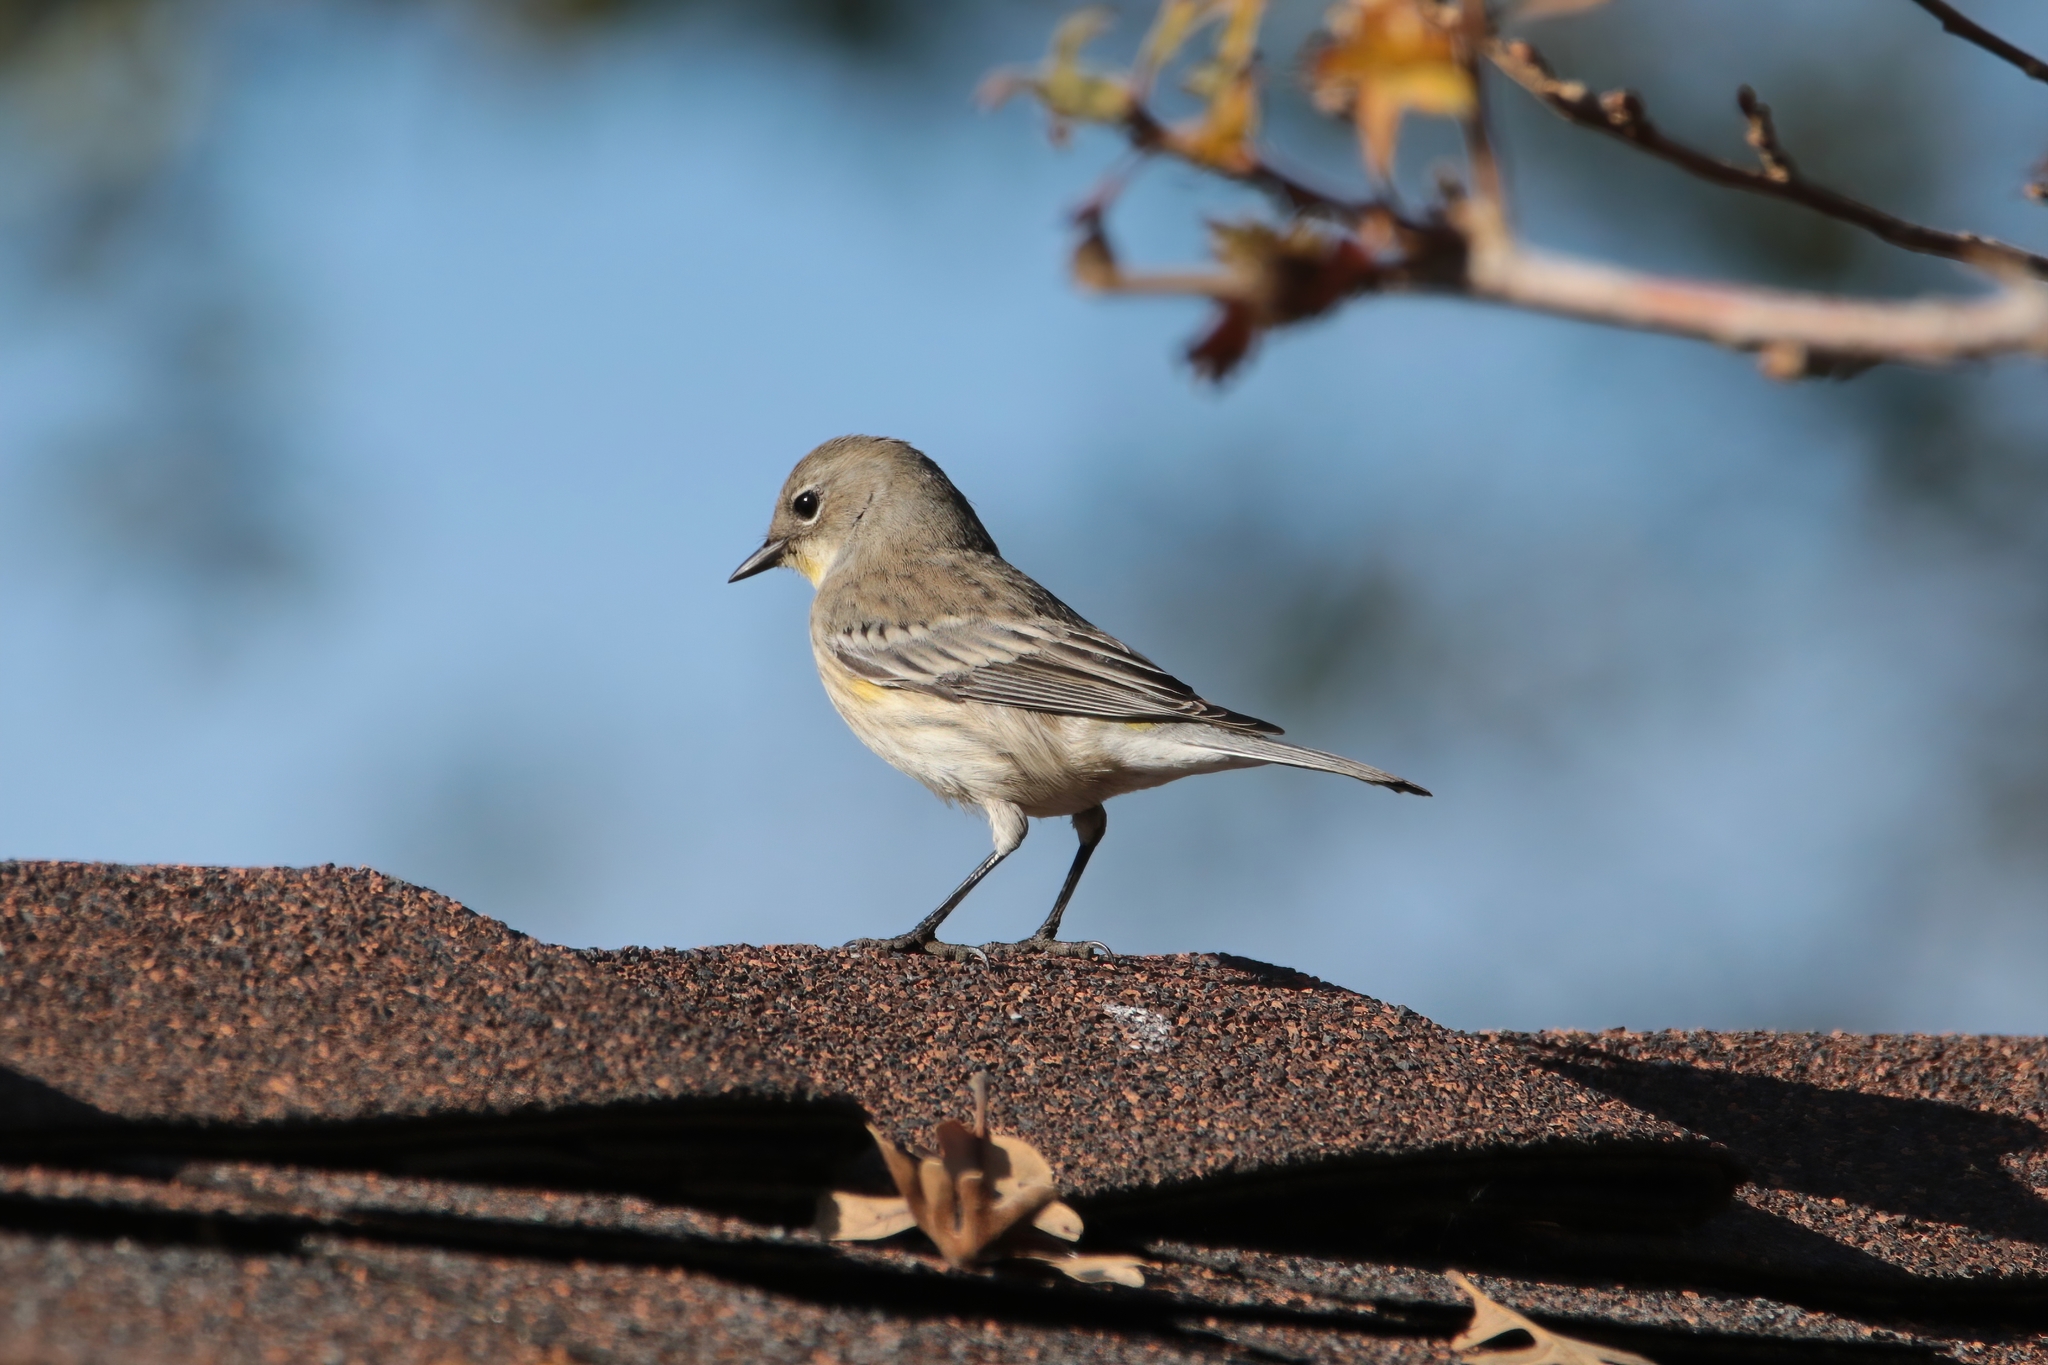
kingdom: Animalia
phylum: Chordata
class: Aves
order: Passeriformes
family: Parulidae
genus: Setophaga
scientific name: Setophaga coronata
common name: Myrtle warbler
